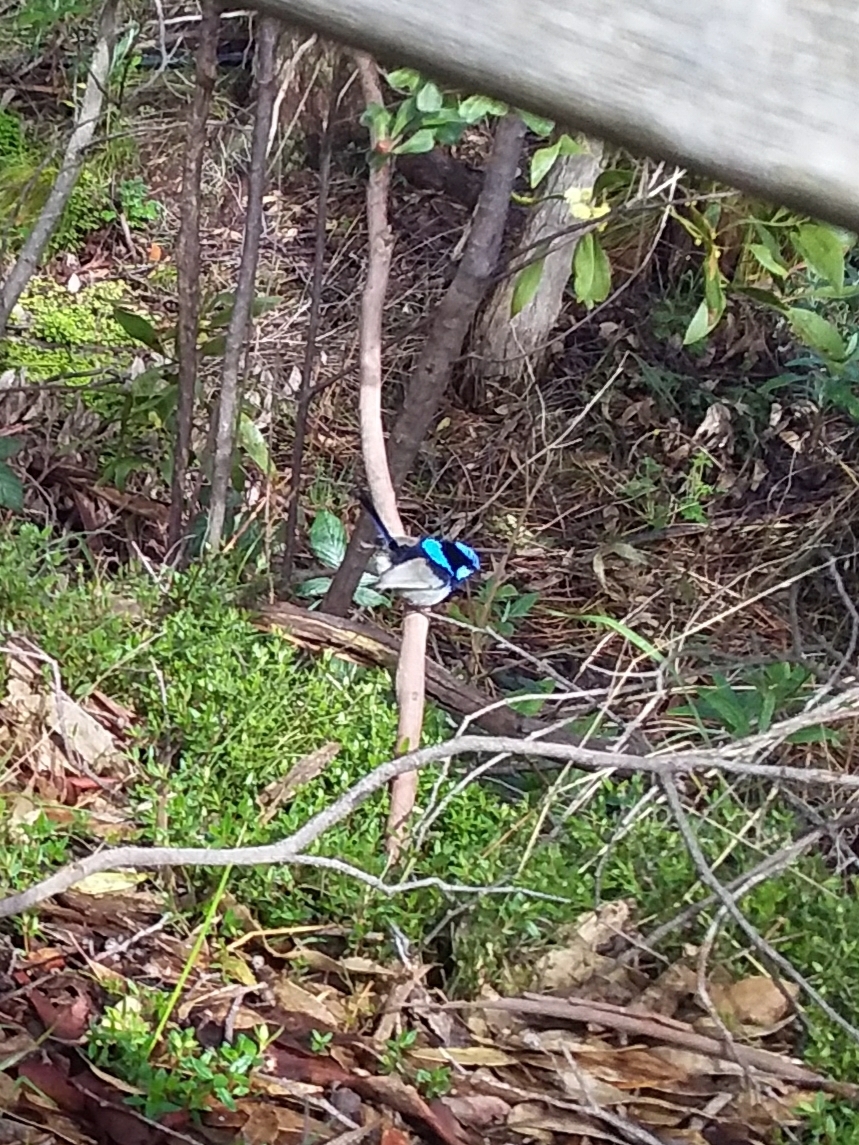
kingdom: Animalia
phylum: Chordata
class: Aves
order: Passeriformes
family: Maluridae
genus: Malurus
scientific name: Malurus cyaneus
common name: Superb fairywren
